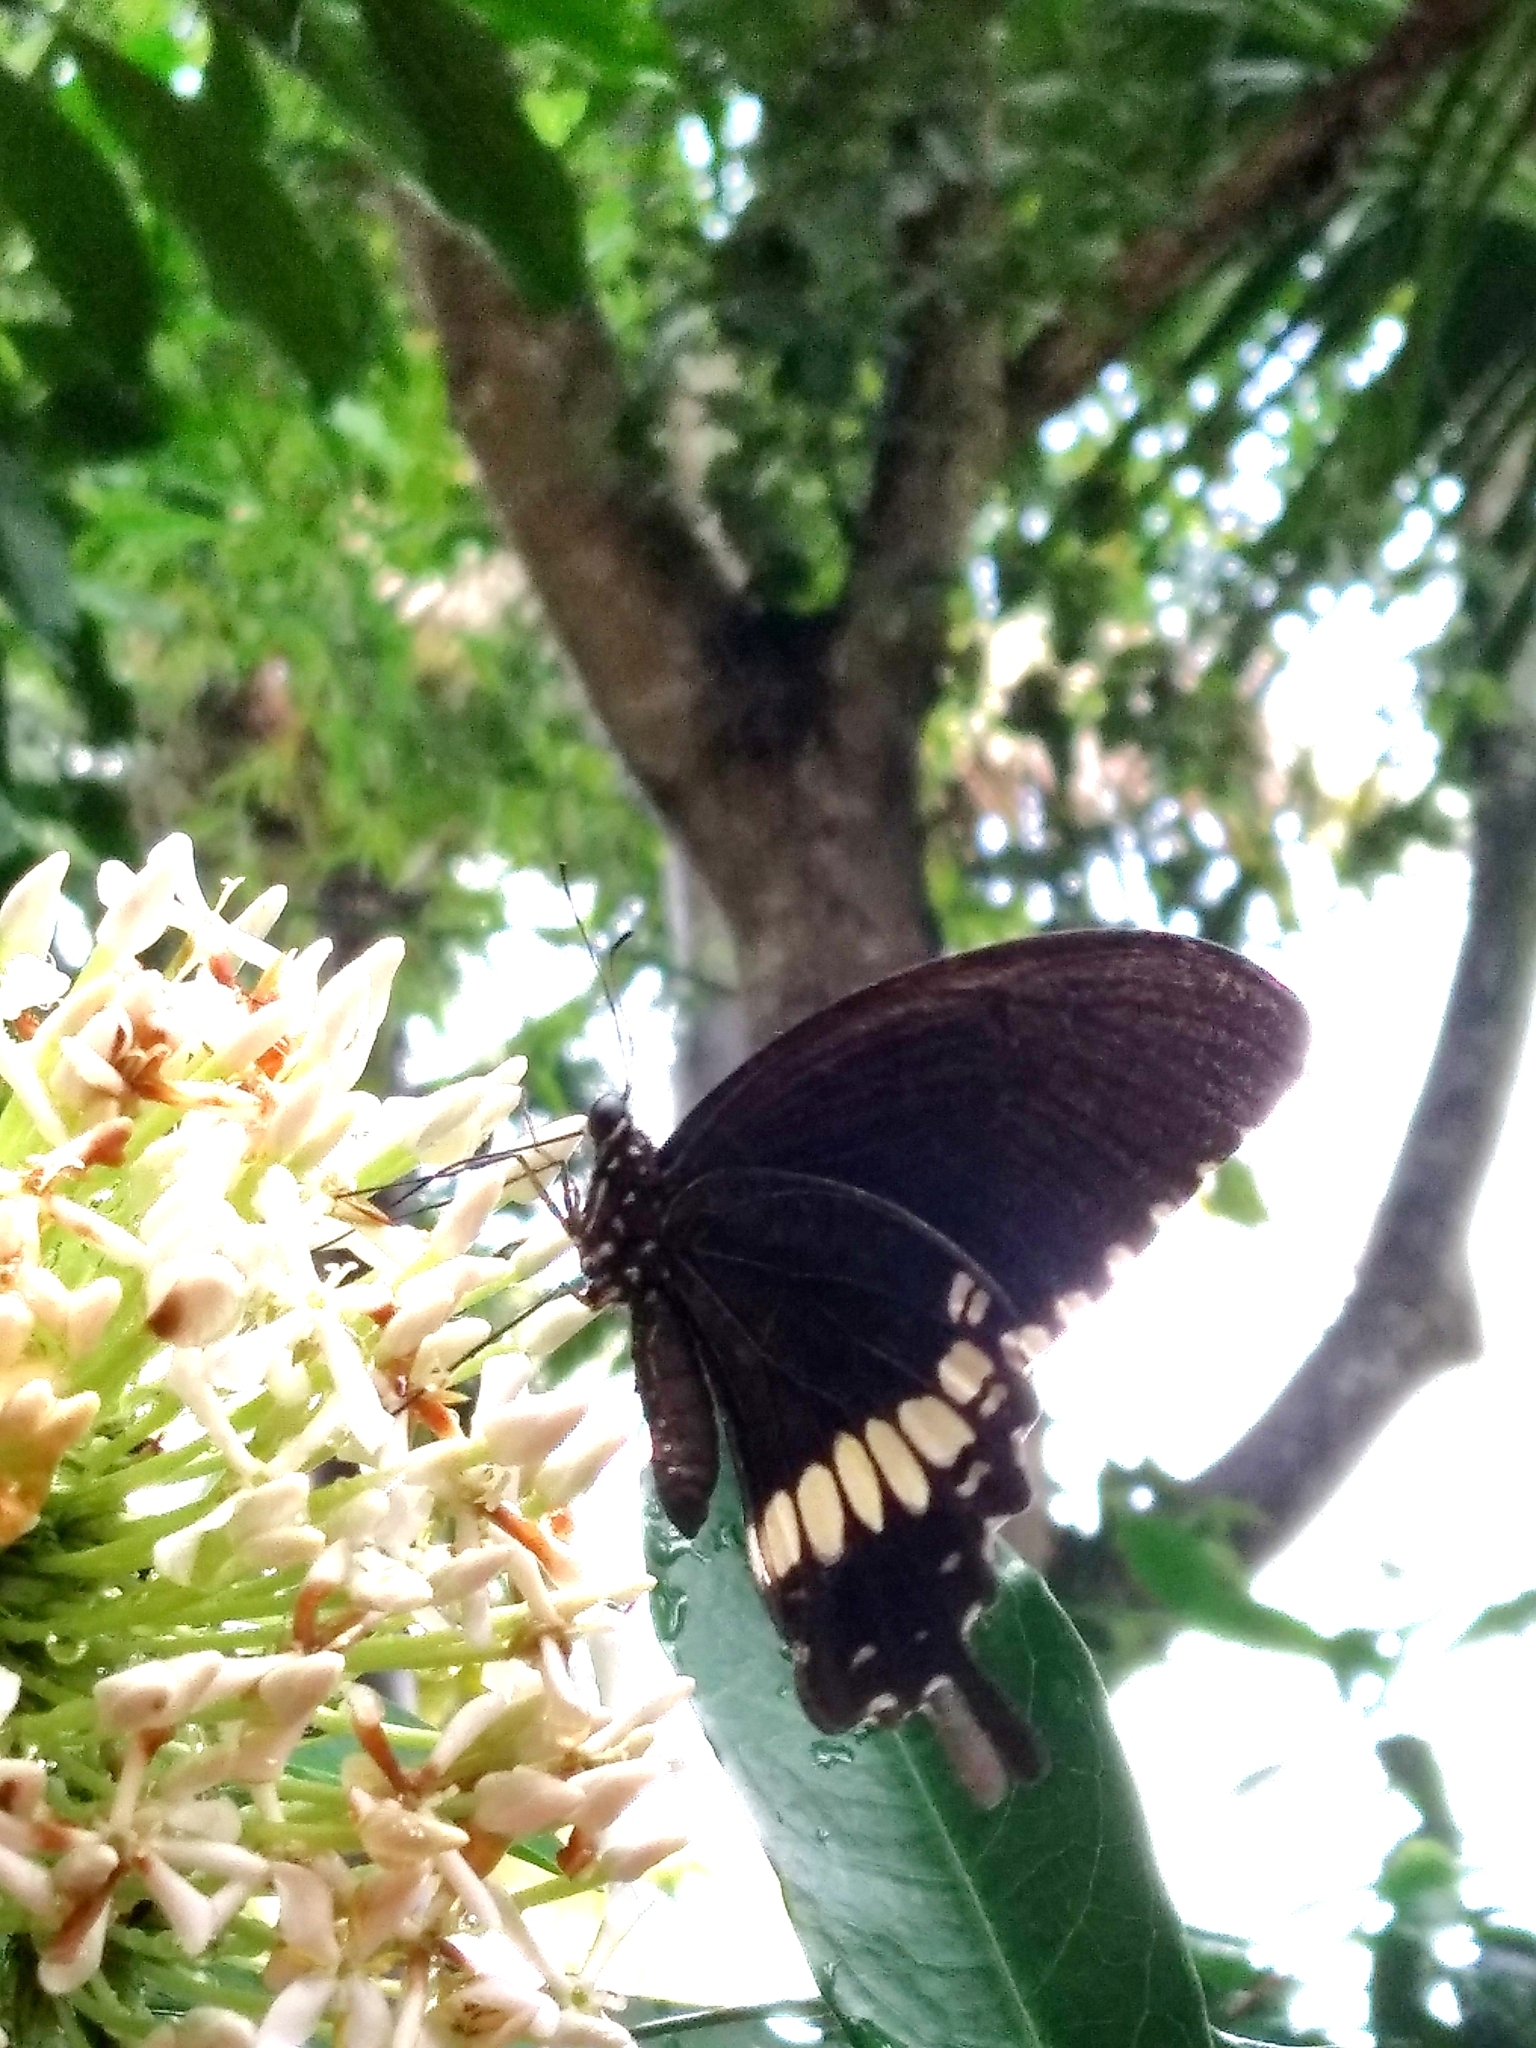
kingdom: Animalia
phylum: Arthropoda
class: Insecta
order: Lepidoptera
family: Papilionidae
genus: Papilio
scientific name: Papilio polytes
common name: Common mormon
